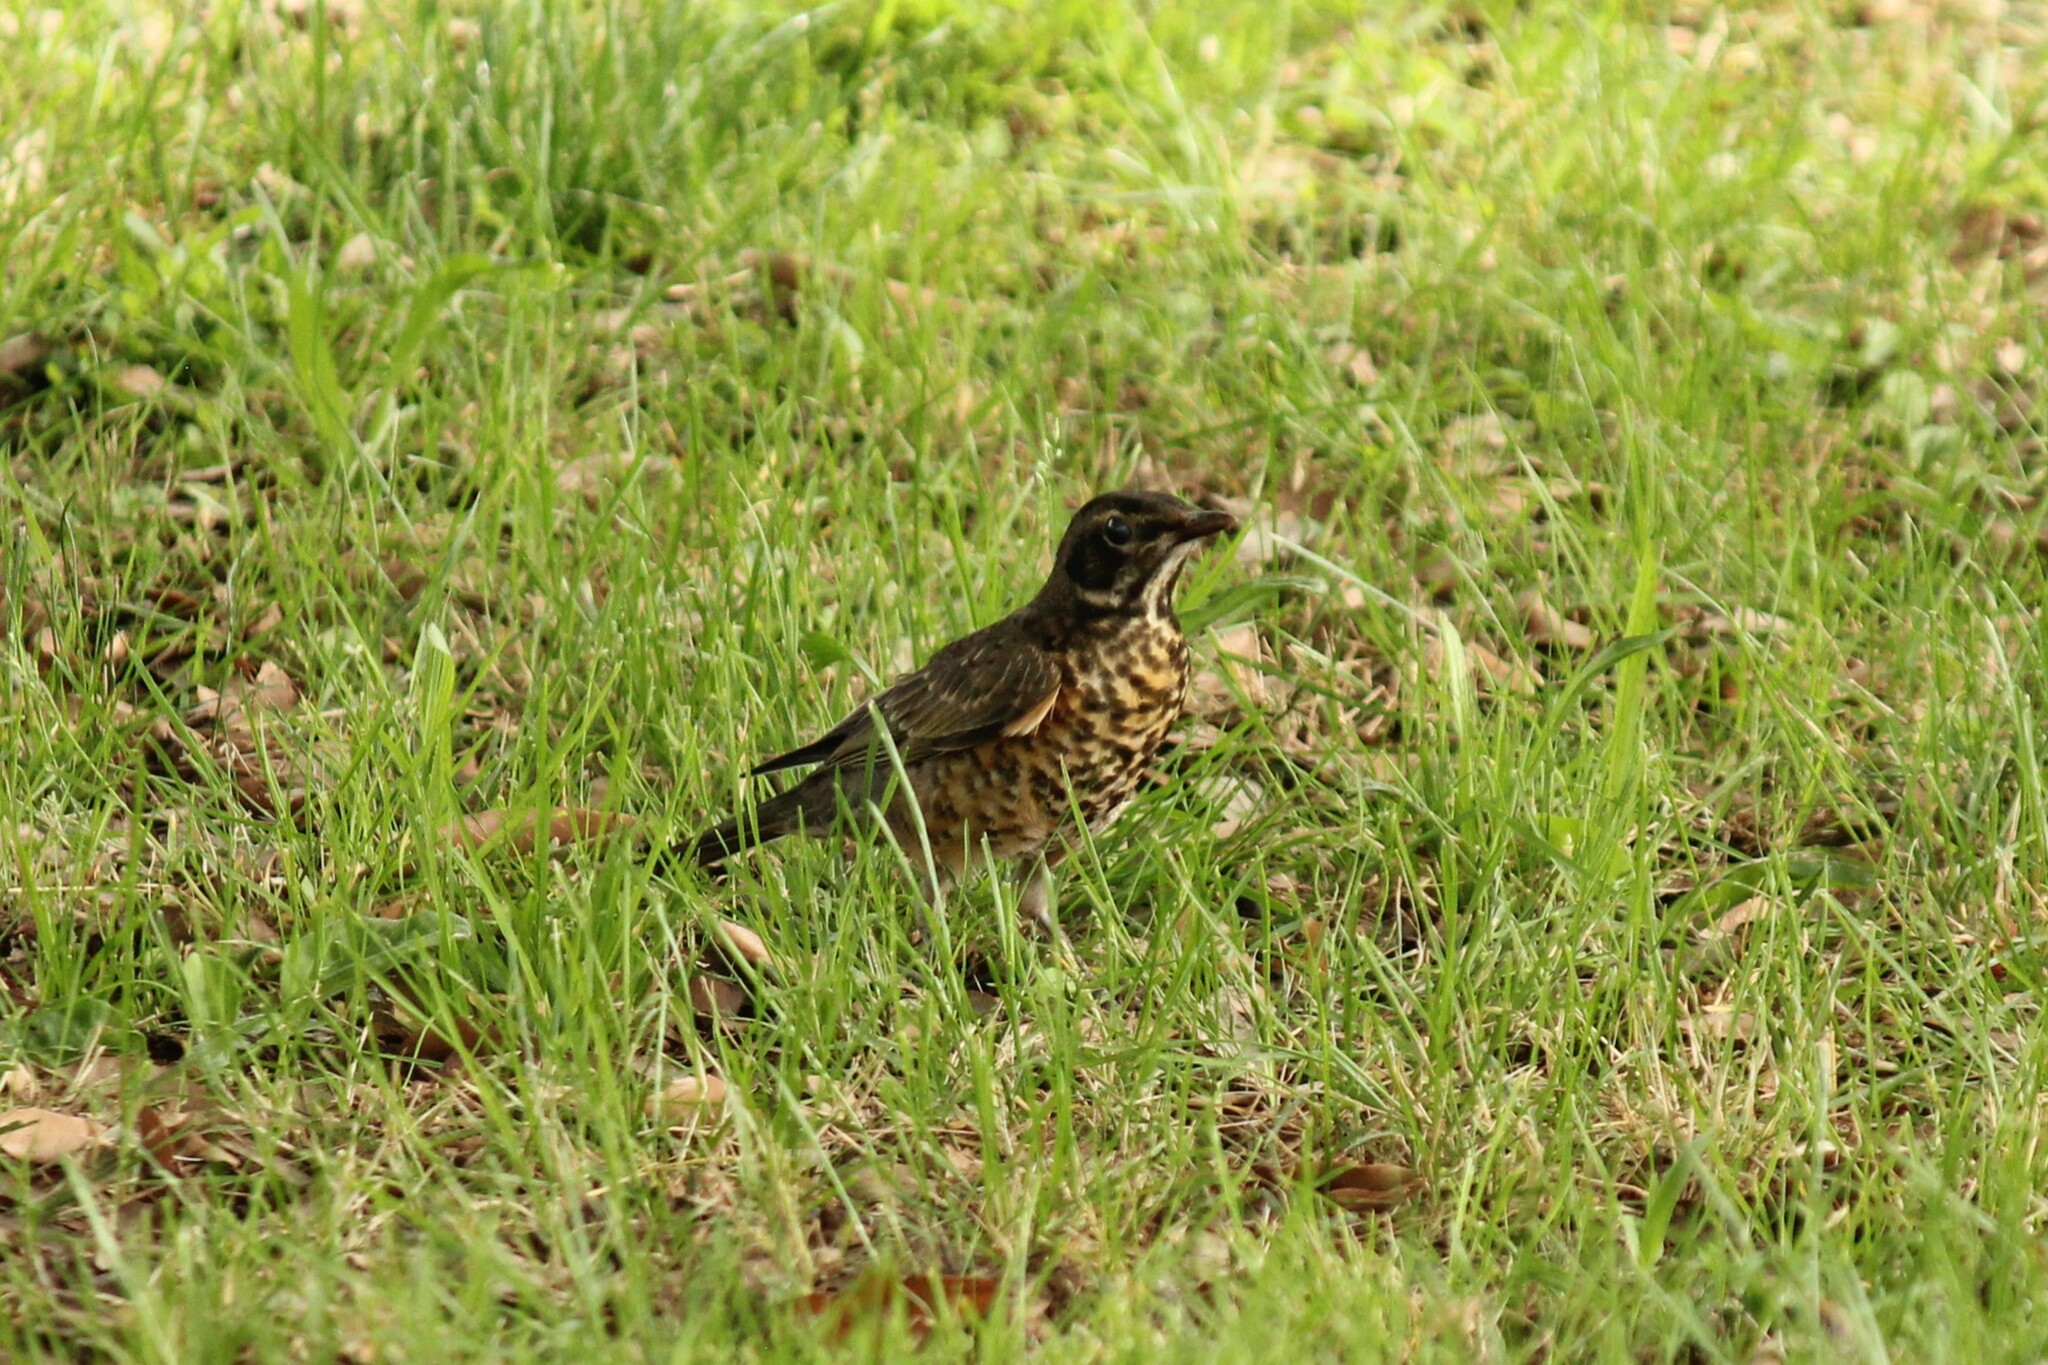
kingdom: Animalia
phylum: Chordata
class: Aves
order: Passeriformes
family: Turdidae
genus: Turdus
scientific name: Turdus migratorius
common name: American robin
